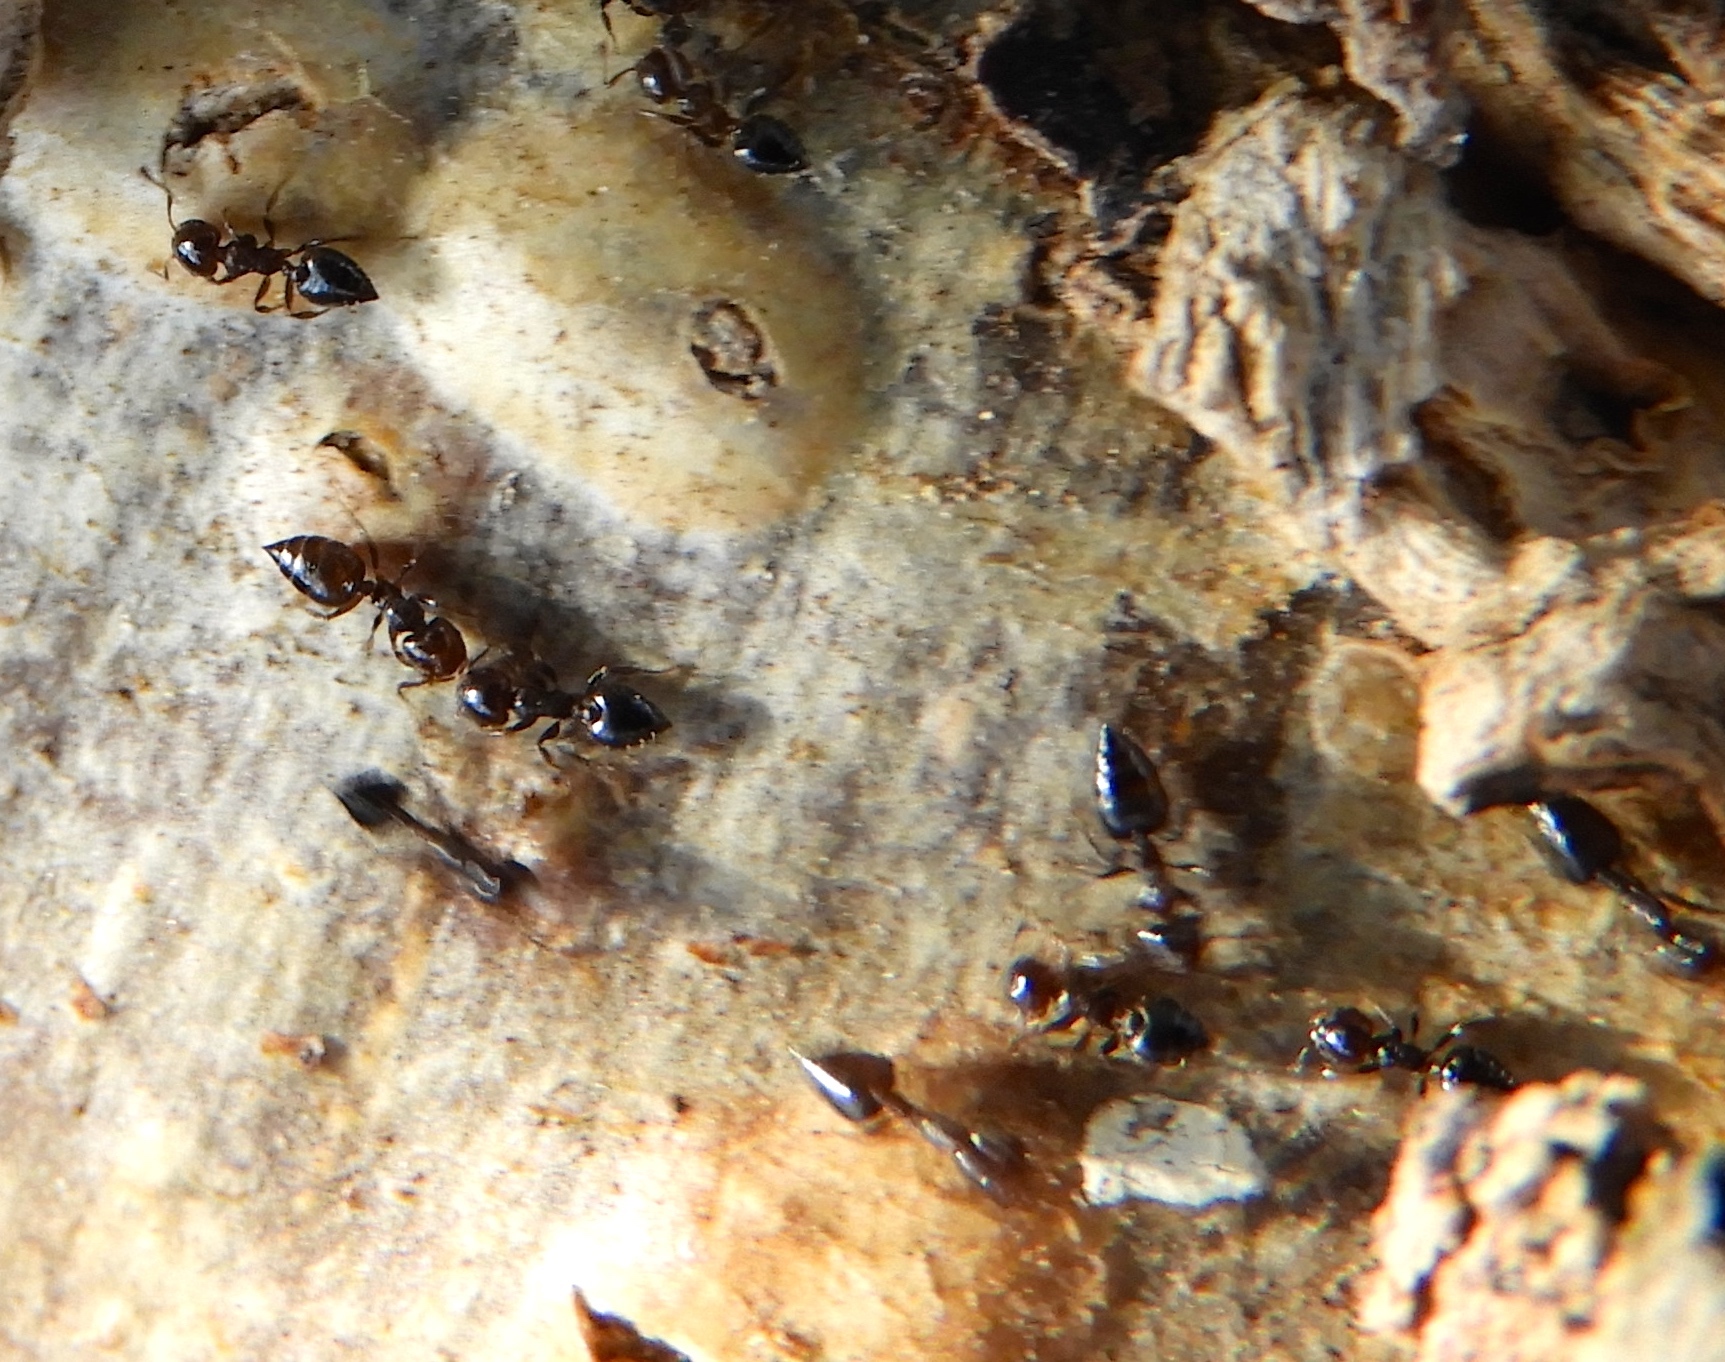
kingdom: Animalia
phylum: Arthropoda
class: Insecta
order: Hymenoptera
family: Formicidae
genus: Crematogaster
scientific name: Crematogaster
